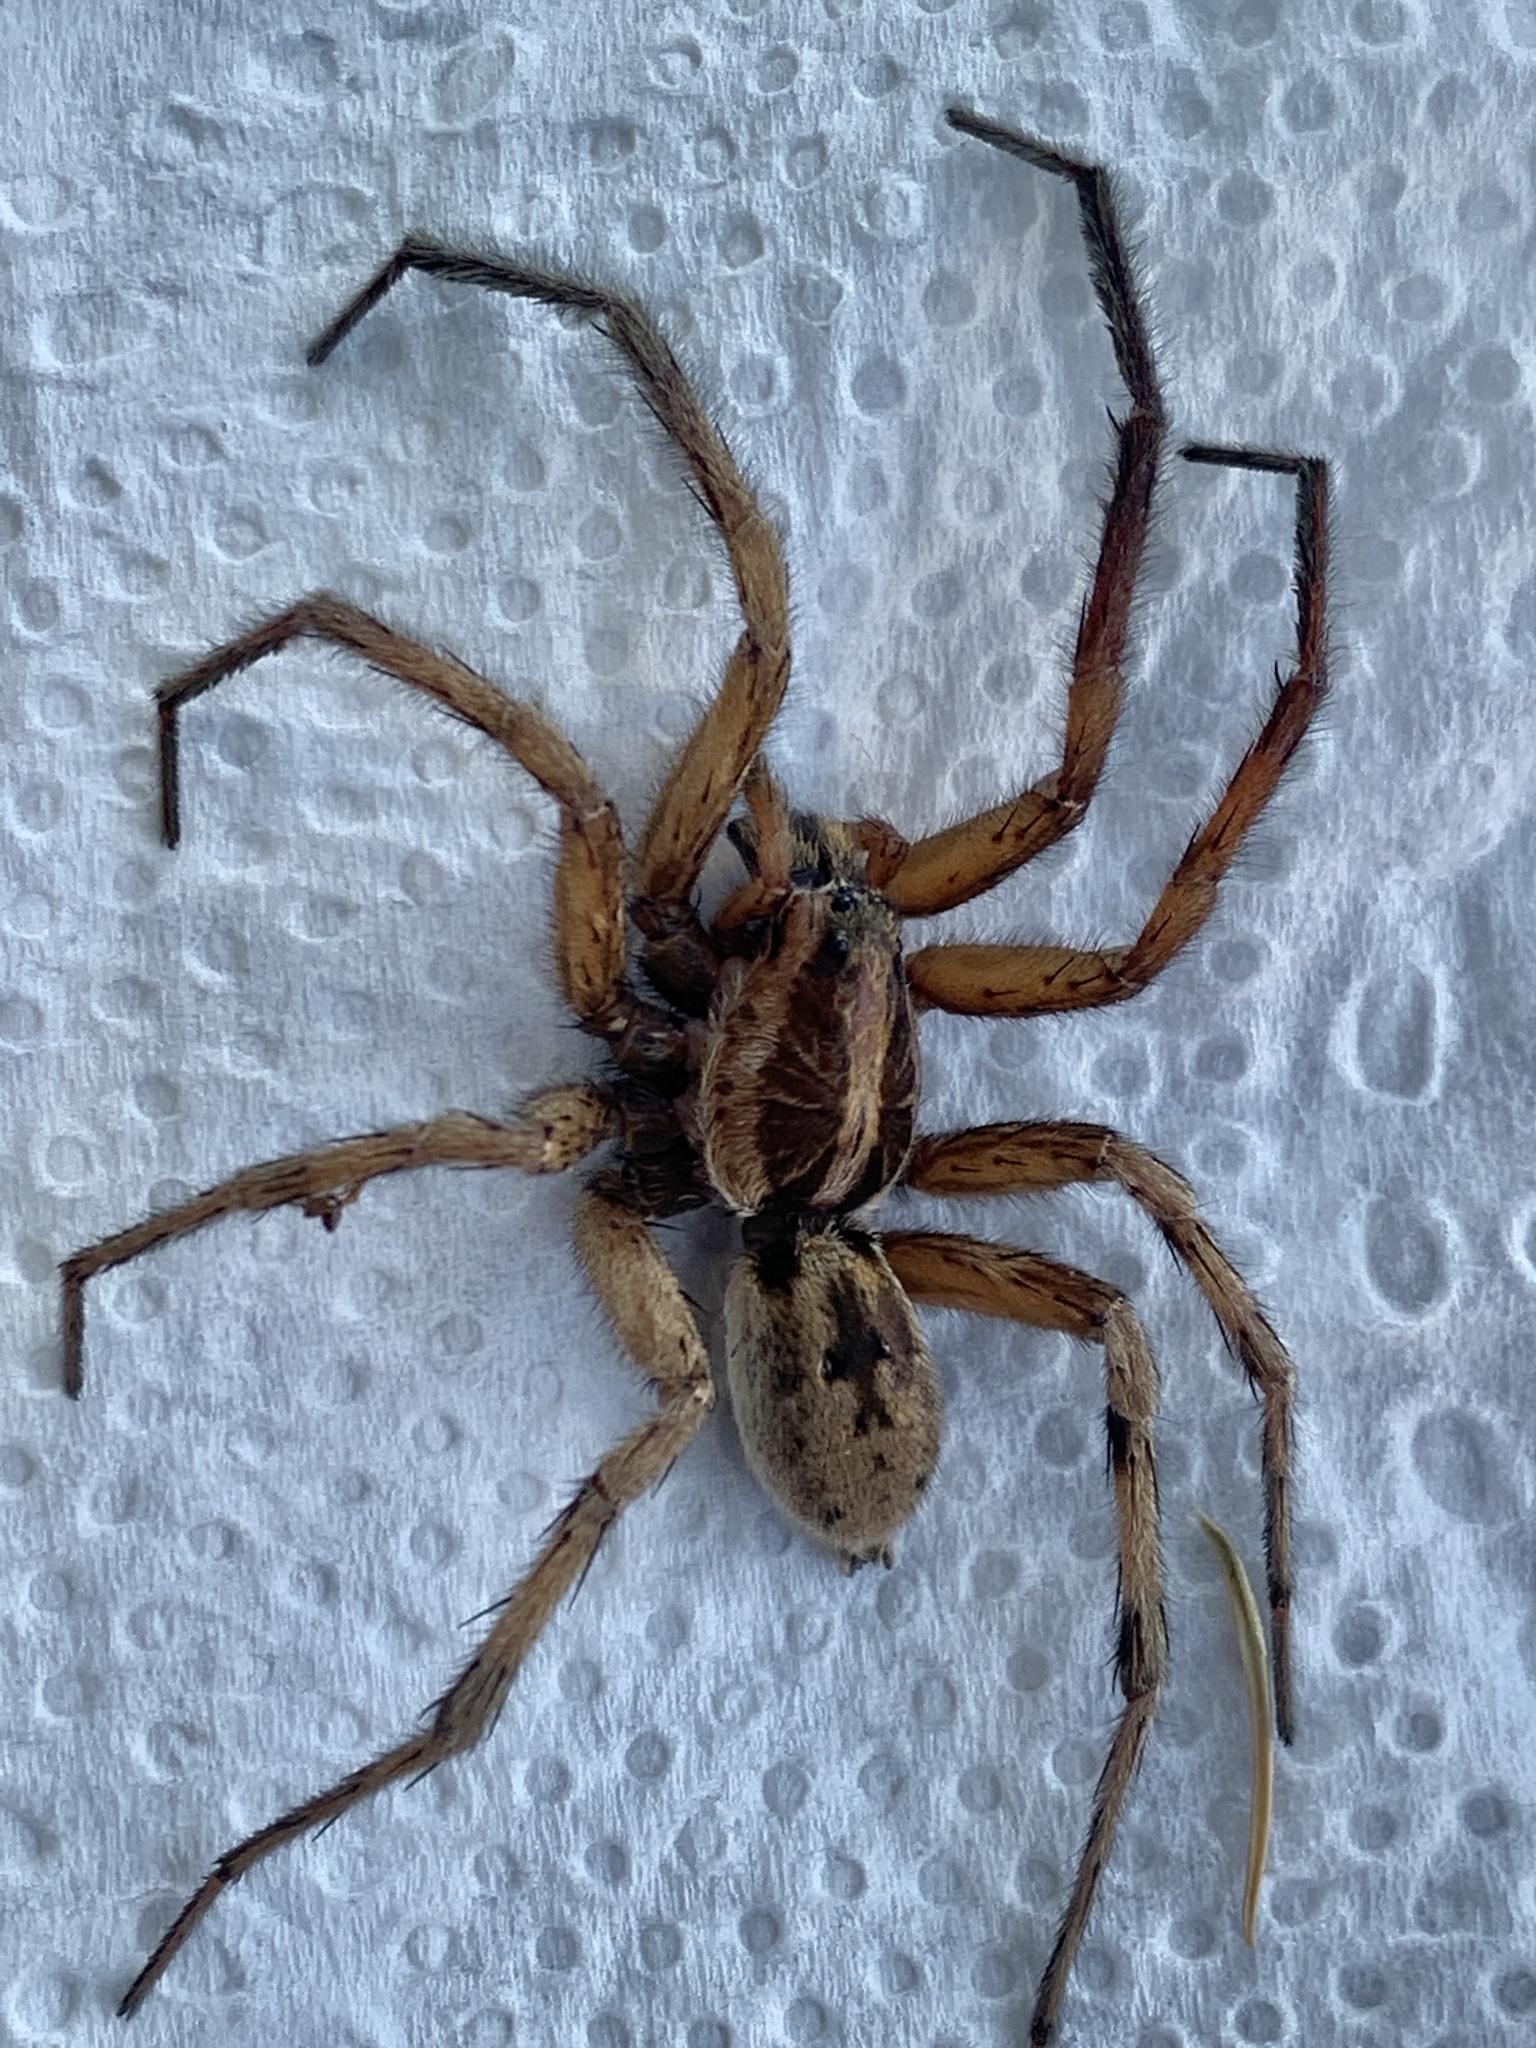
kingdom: Animalia
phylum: Arthropoda
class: Arachnida
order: Araneae
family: Lycosidae
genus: Hogna
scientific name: Hogna radiata
